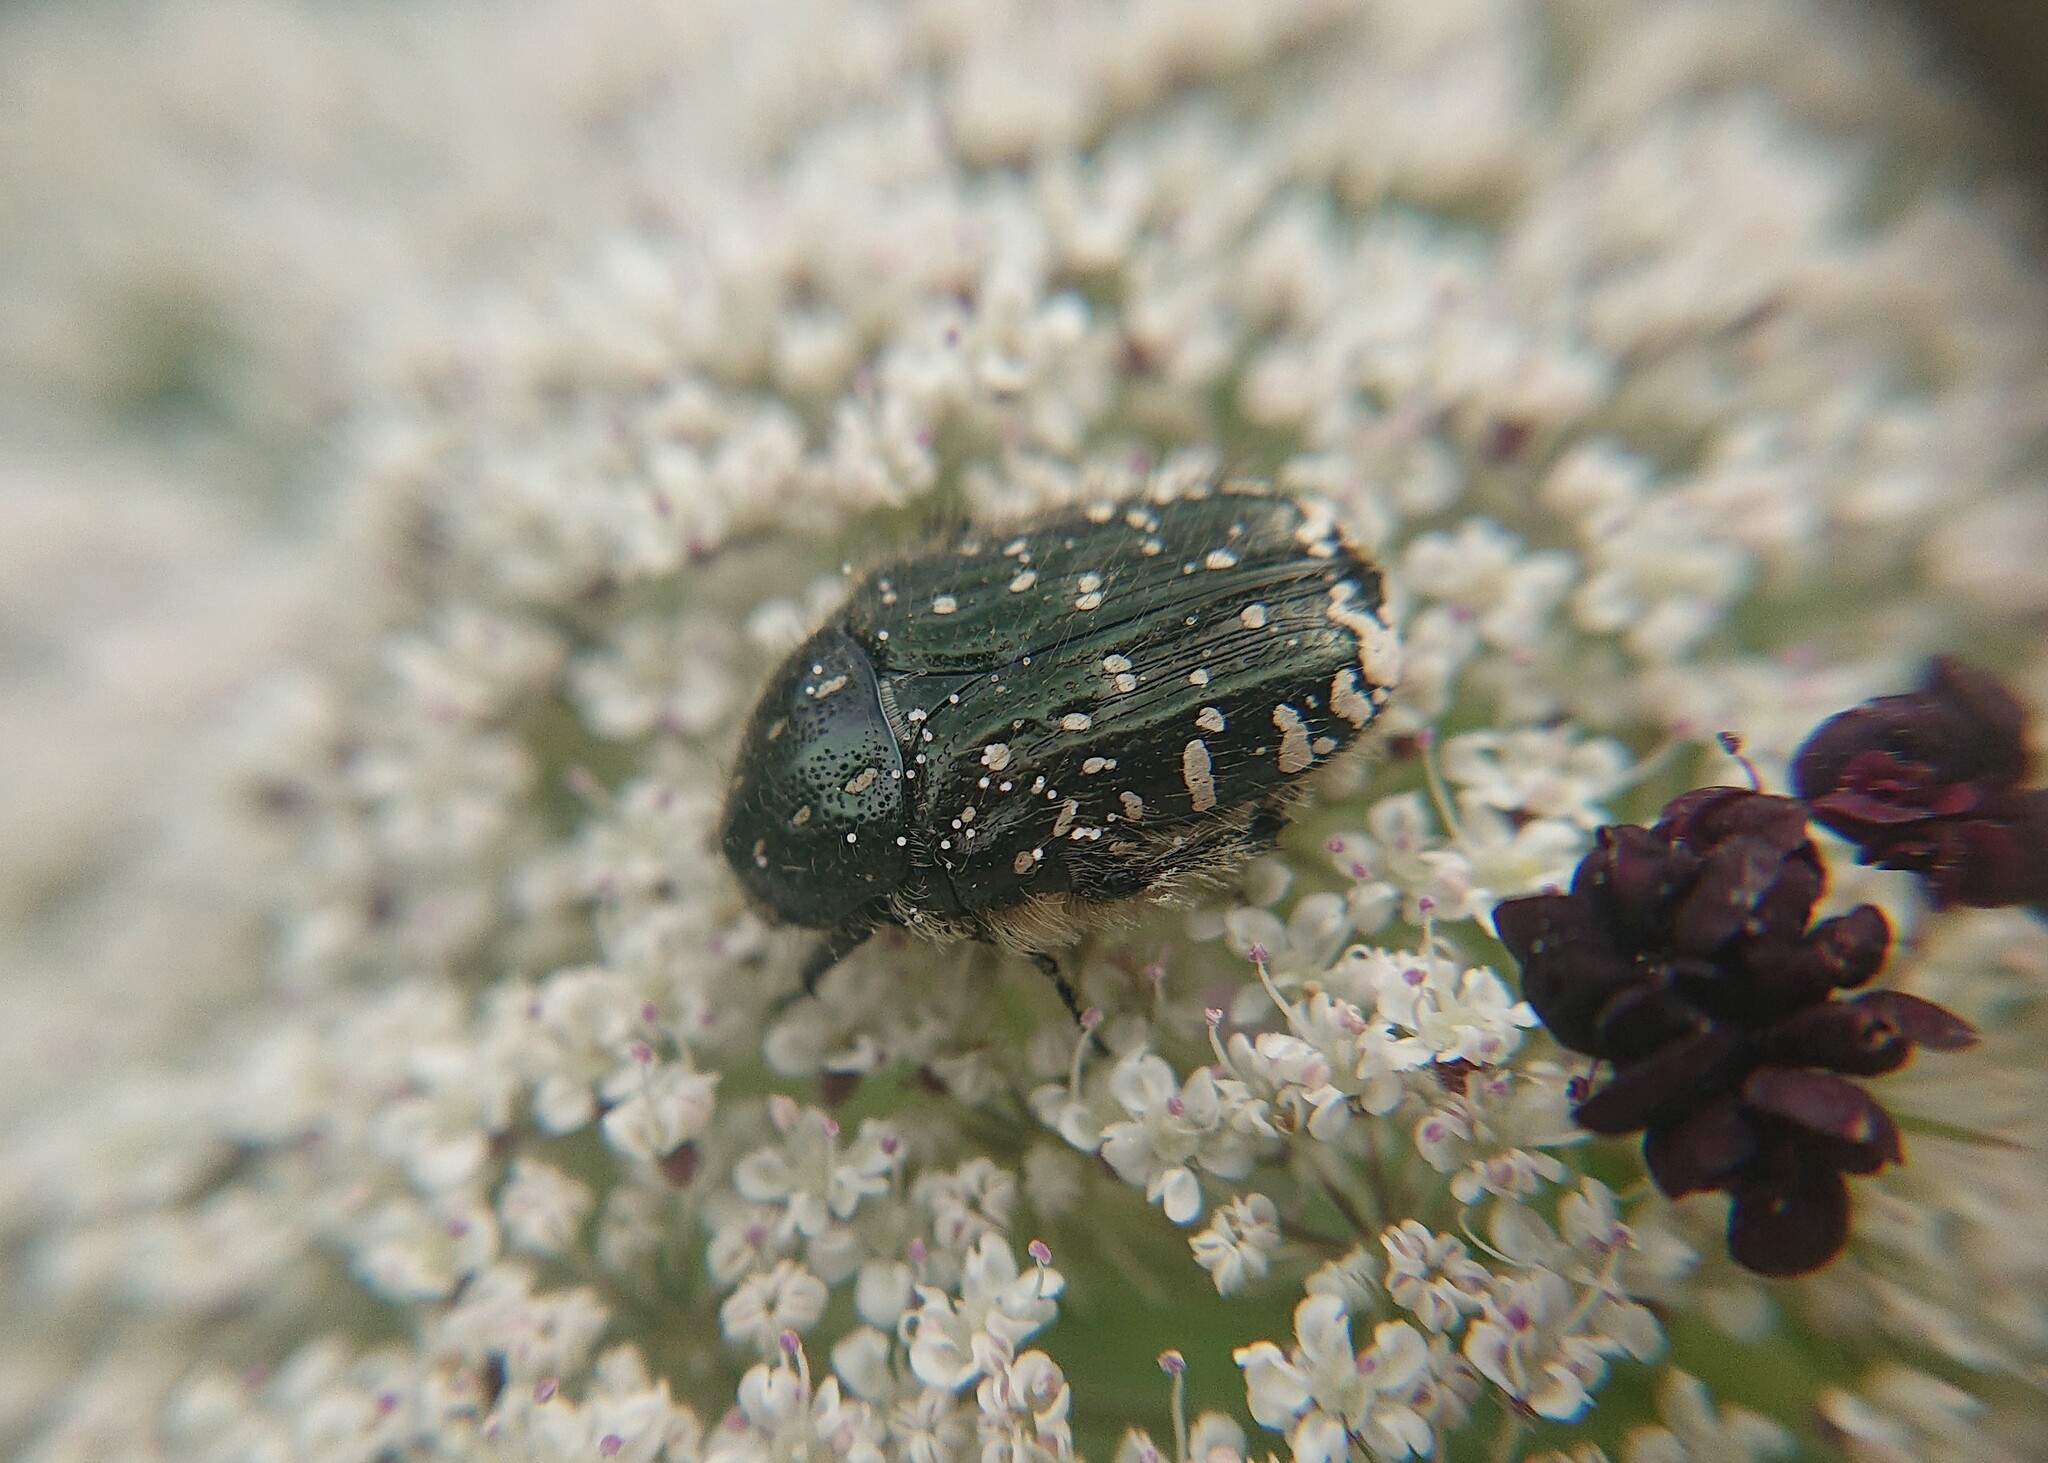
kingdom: Animalia
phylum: Arthropoda
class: Insecta
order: Coleoptera
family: Scarabaeidae
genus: Oxythyrea
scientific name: Oxythyrea funesta
